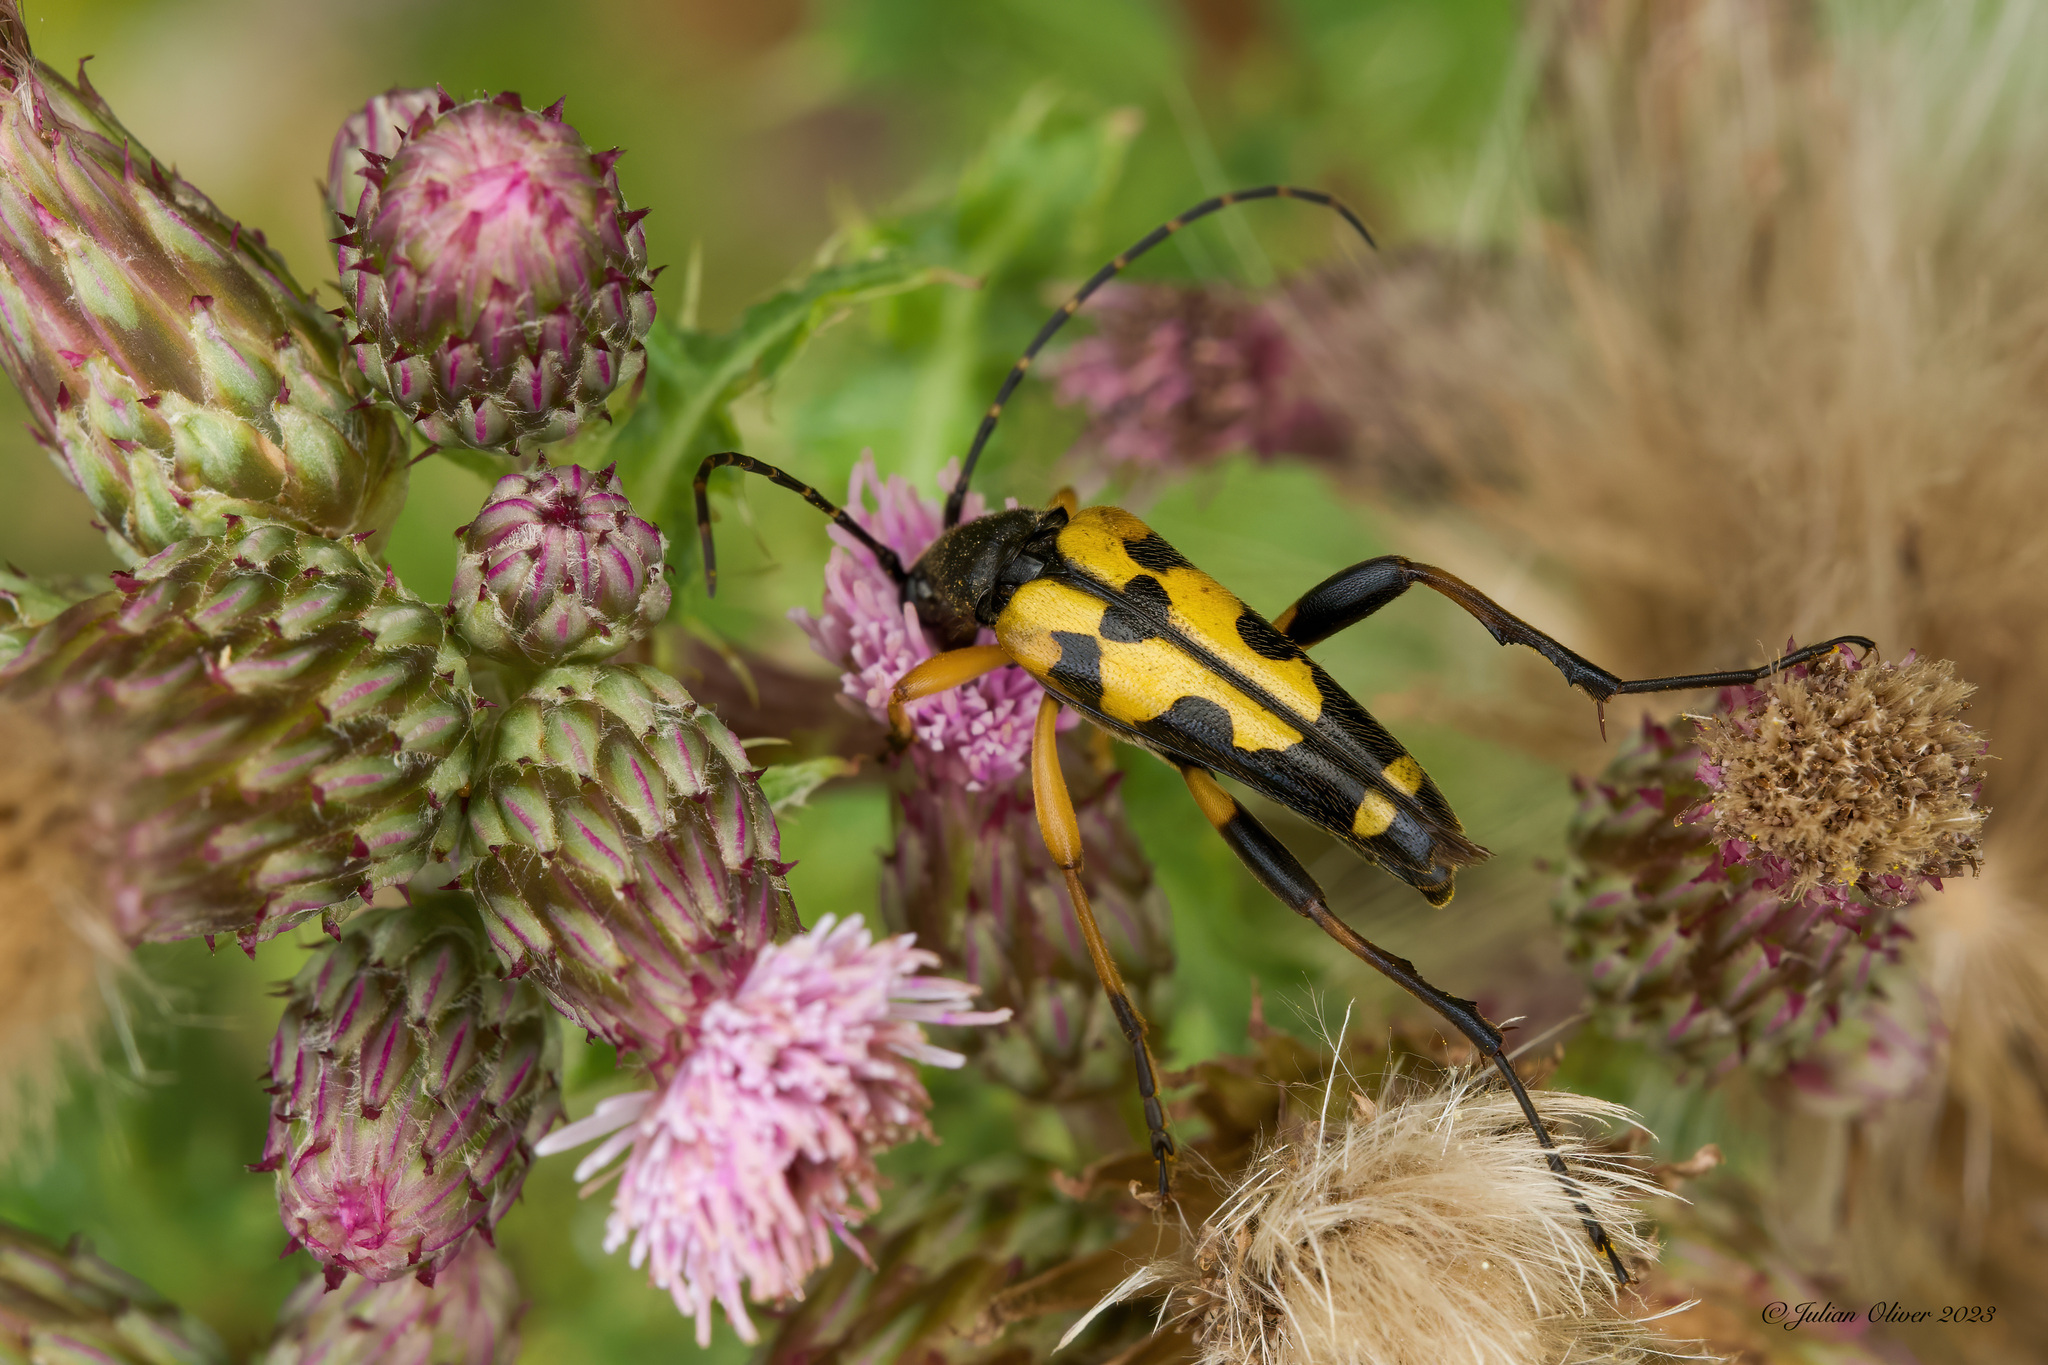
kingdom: Animalia
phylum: Arthropoda
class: Insecta
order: Coleoptera
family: Cerambycidae
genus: Rutpela
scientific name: Rutpela maculata
